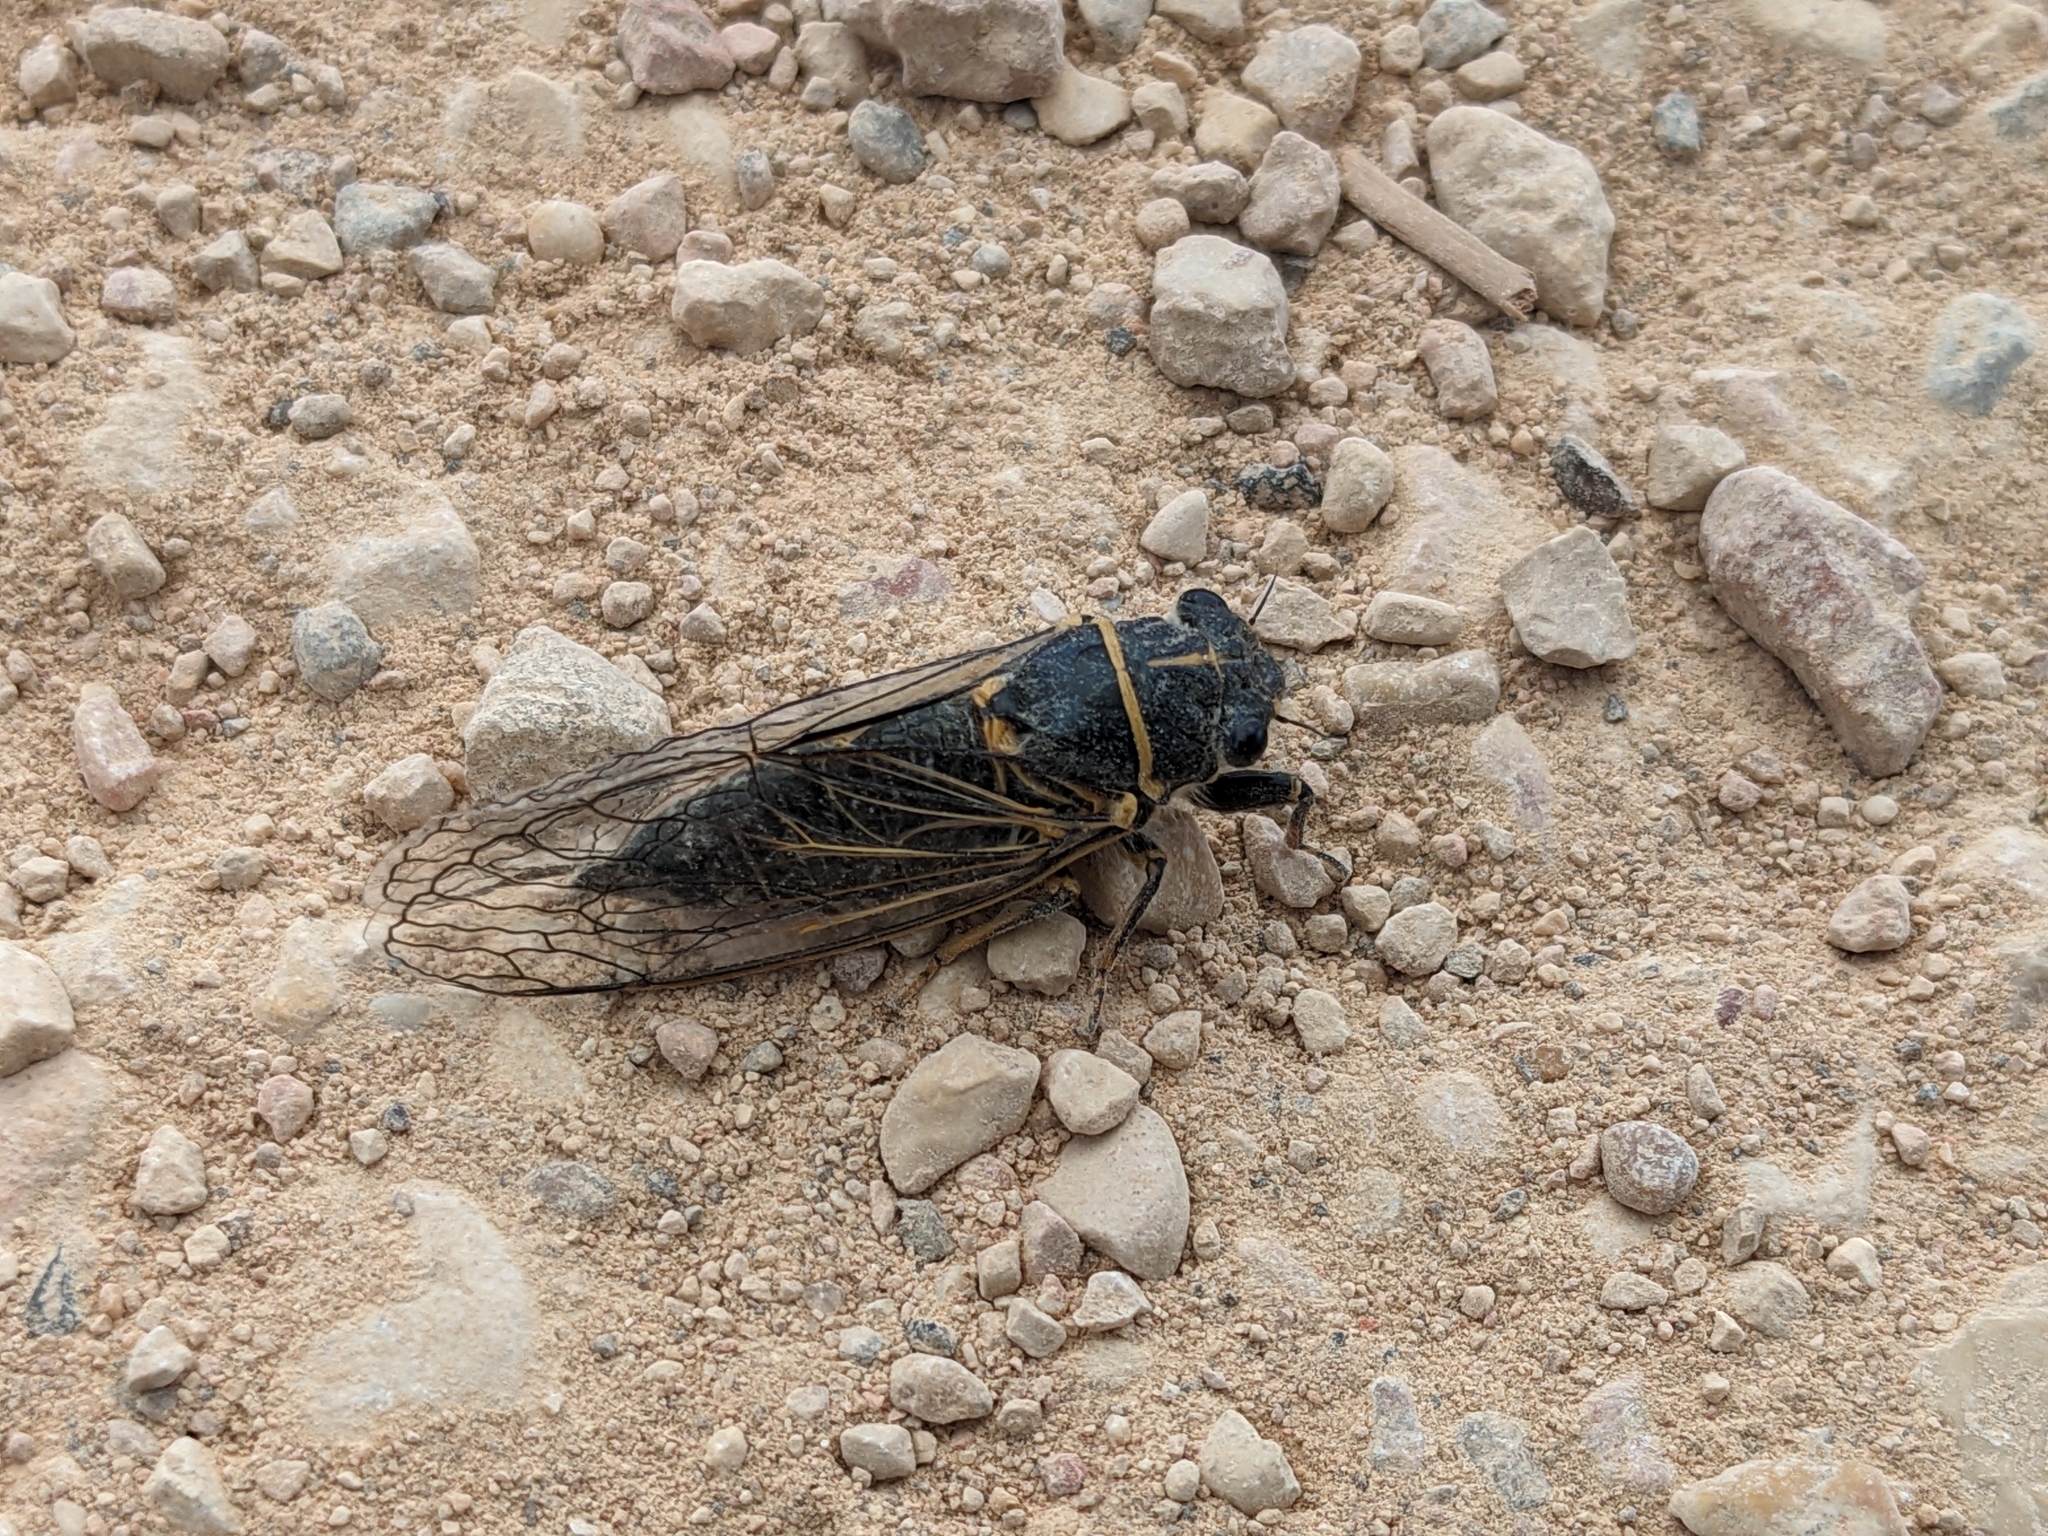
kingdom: Animalia
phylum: Arthropoda
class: Insecta
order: Hemiptera
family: Cicadidae
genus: Platypedia
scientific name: Platypedia putnami
